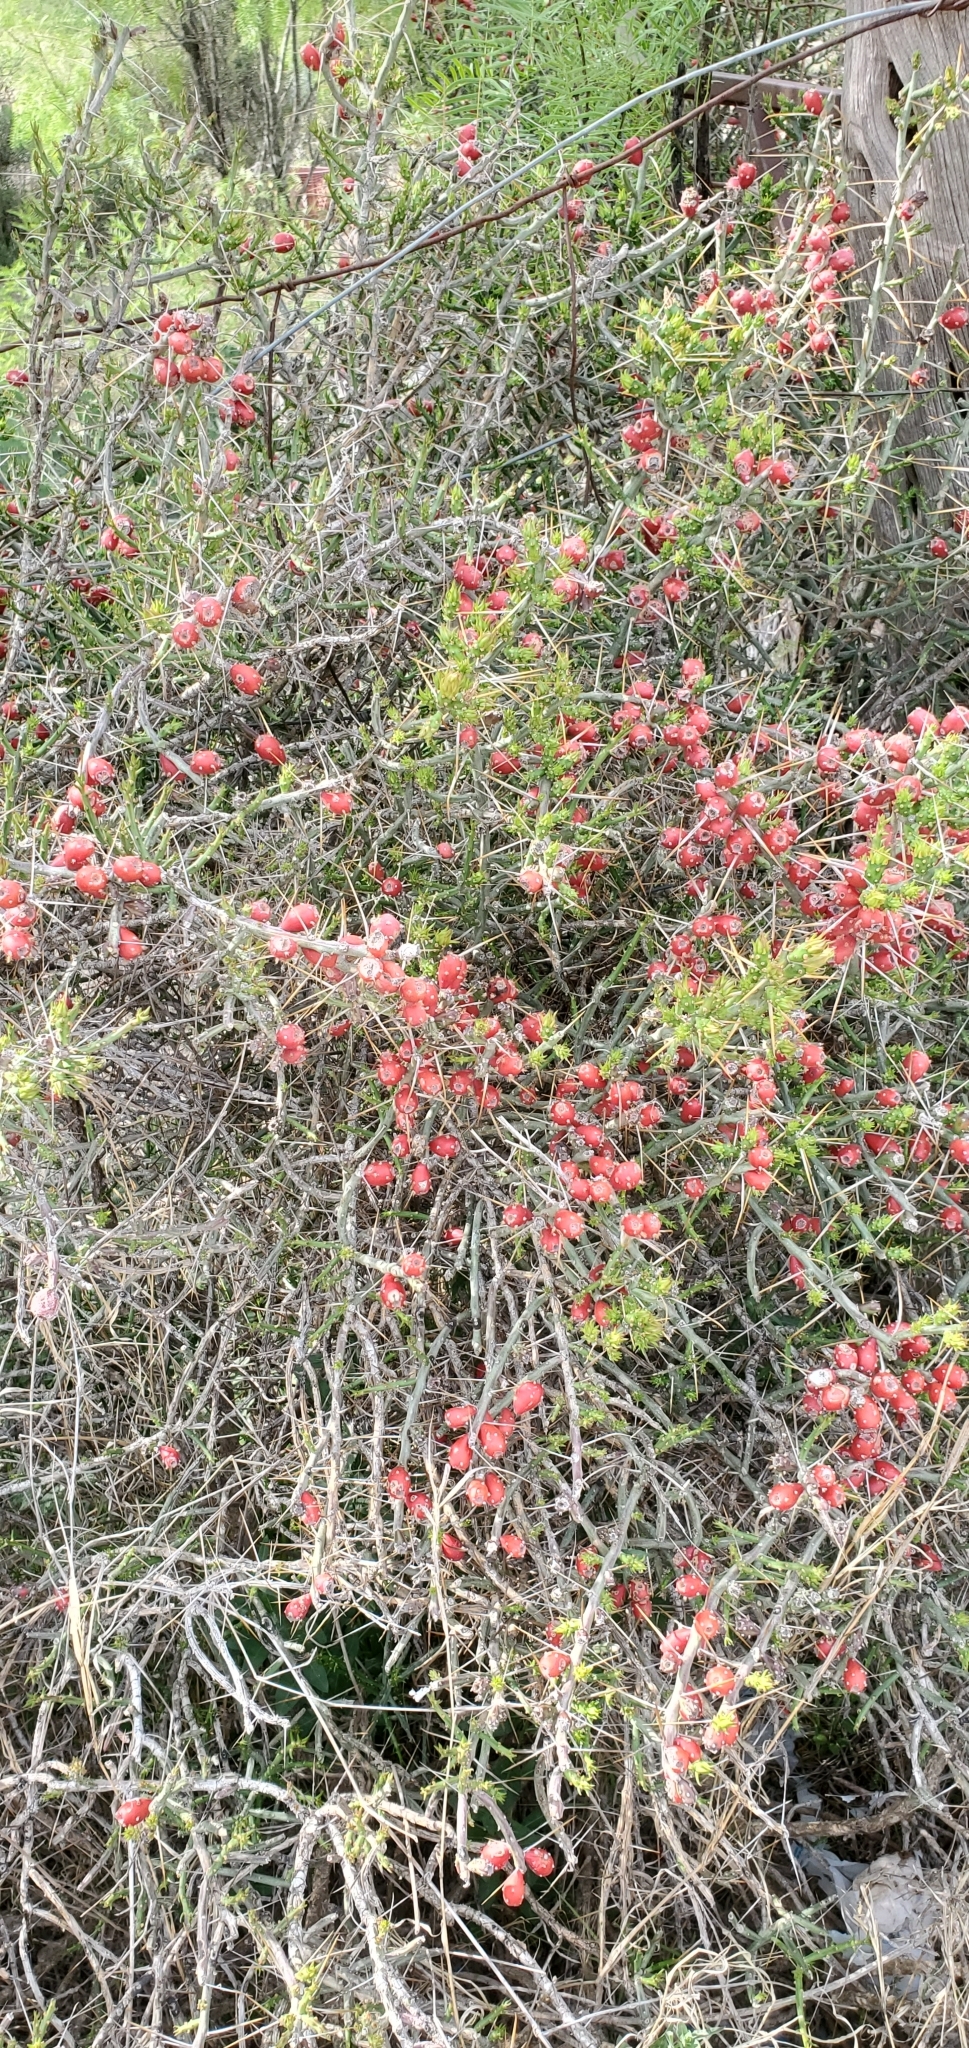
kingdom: Plantae
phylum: Tracheophyta
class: Magnoliopsida
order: Caryophyllales
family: Cactaceae
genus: Cylindropuntia
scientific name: Cylindropuntia leptocaulis
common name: Christmas cactus
